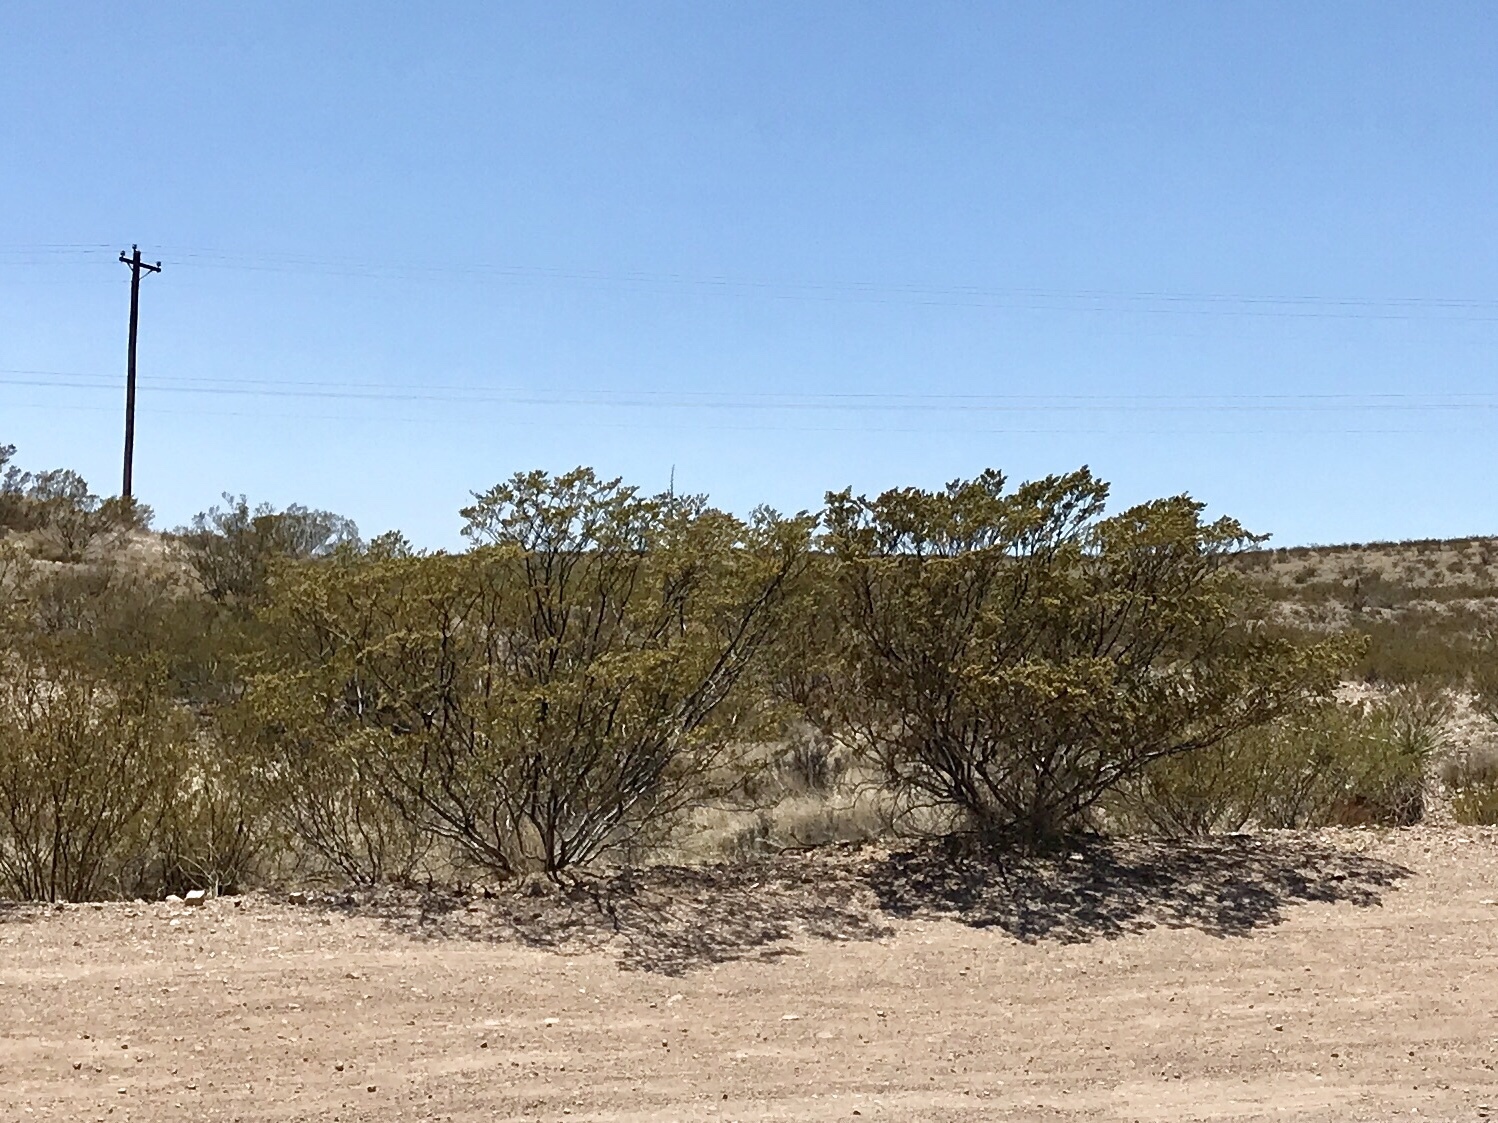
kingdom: Plantae
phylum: Tracheophyta
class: Magnoliopsida
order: Zygophyllales
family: Zygophyllaceae
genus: Larrea
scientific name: Larrea tridentata
